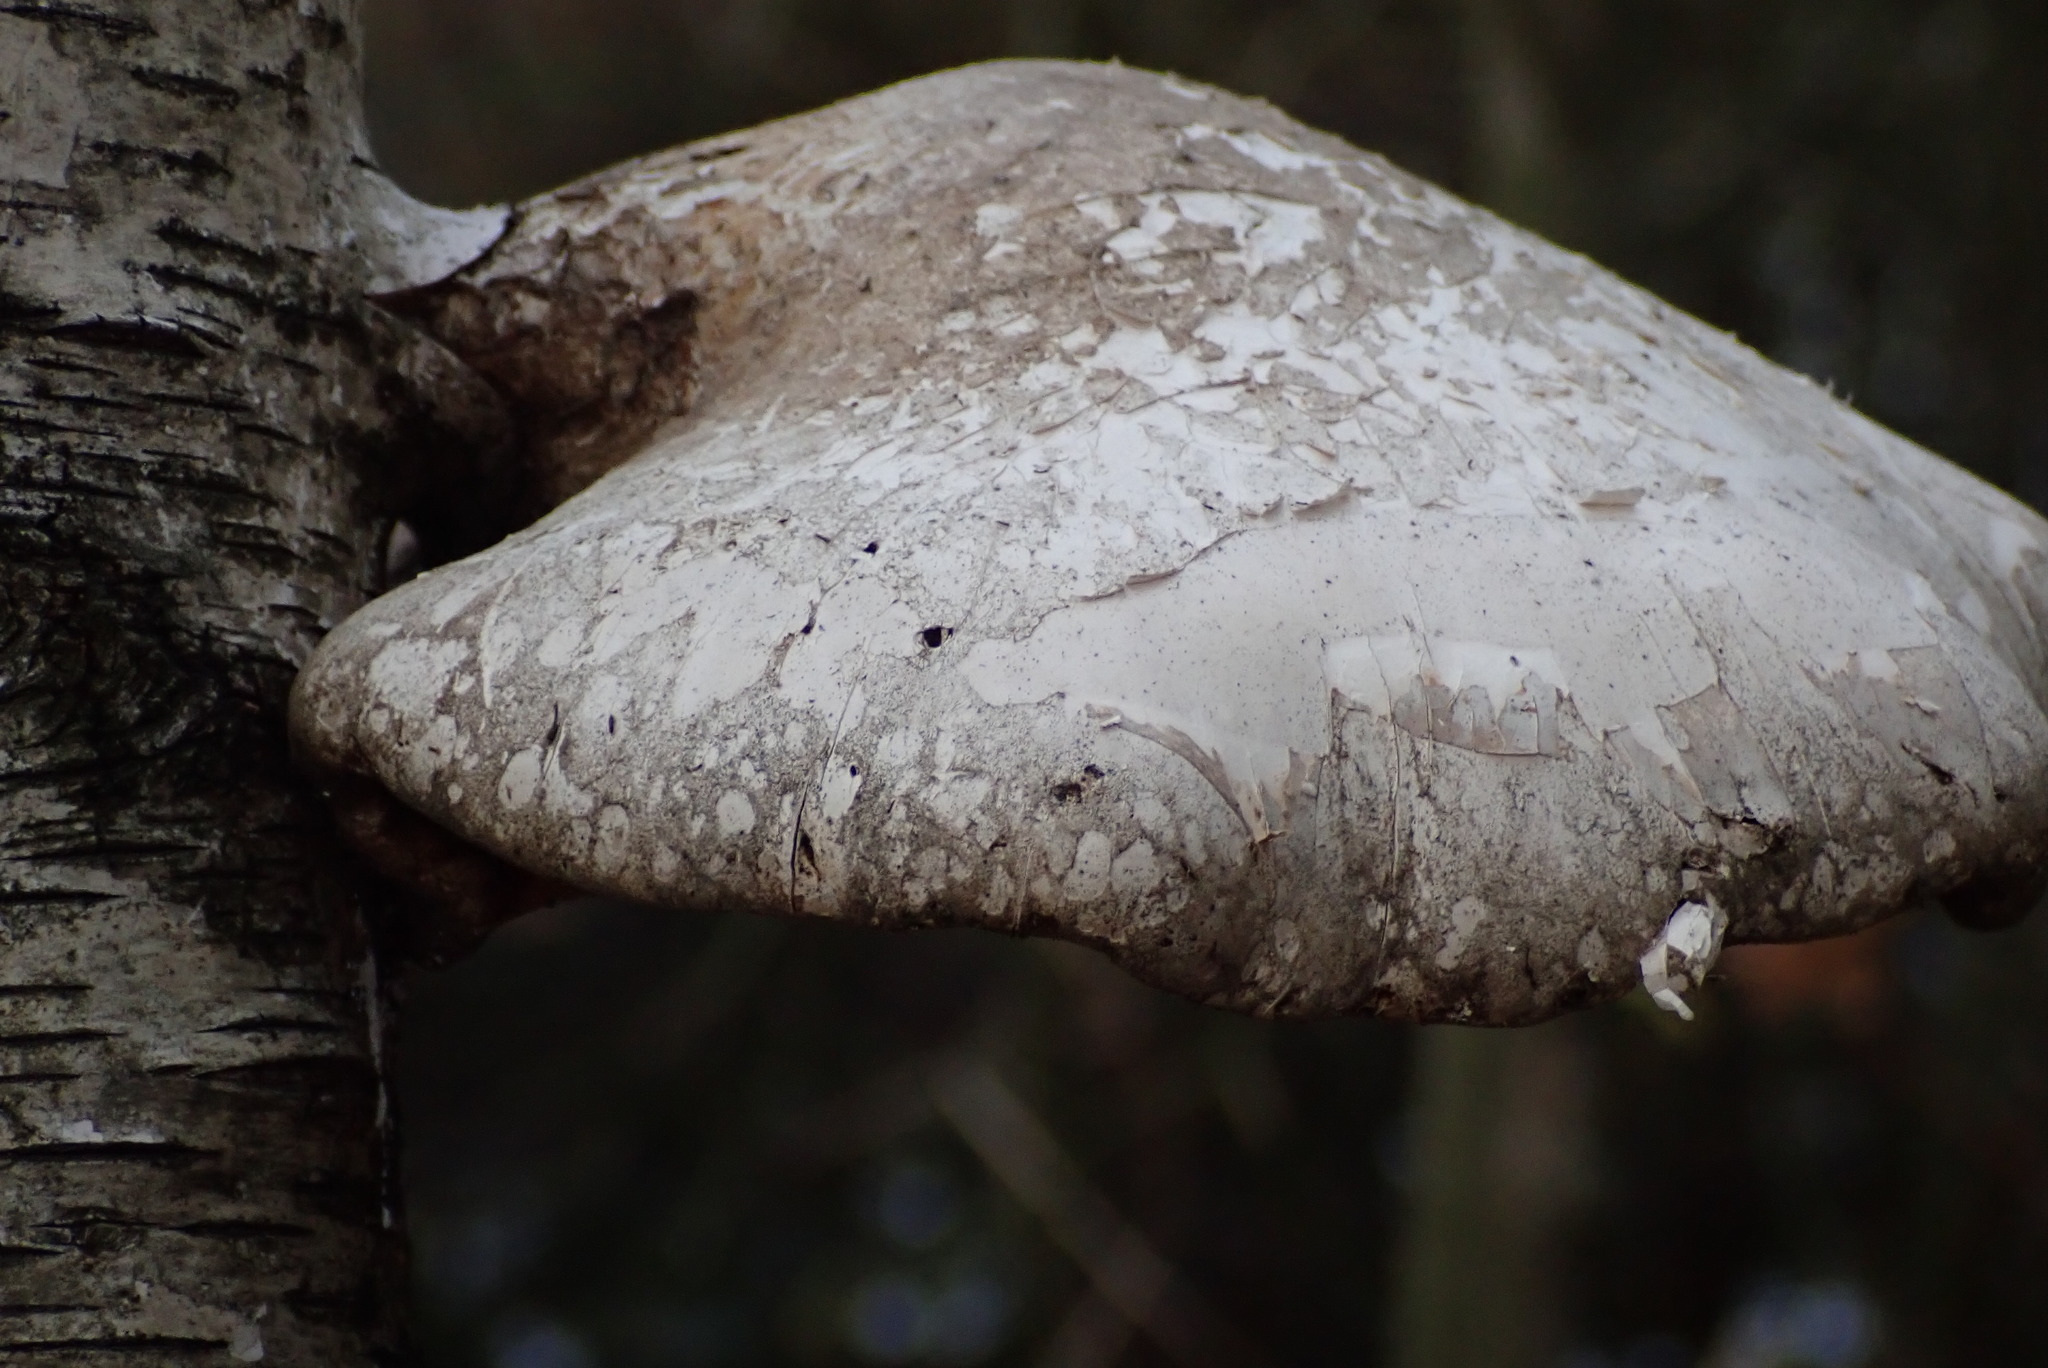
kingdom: Fungi
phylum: Basidiomycota
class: Agaricomycetes
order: Polyporales
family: Fomitopsidaceae
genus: Fomitopsis
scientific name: Fomitopsis betulina
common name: Birch polypore
